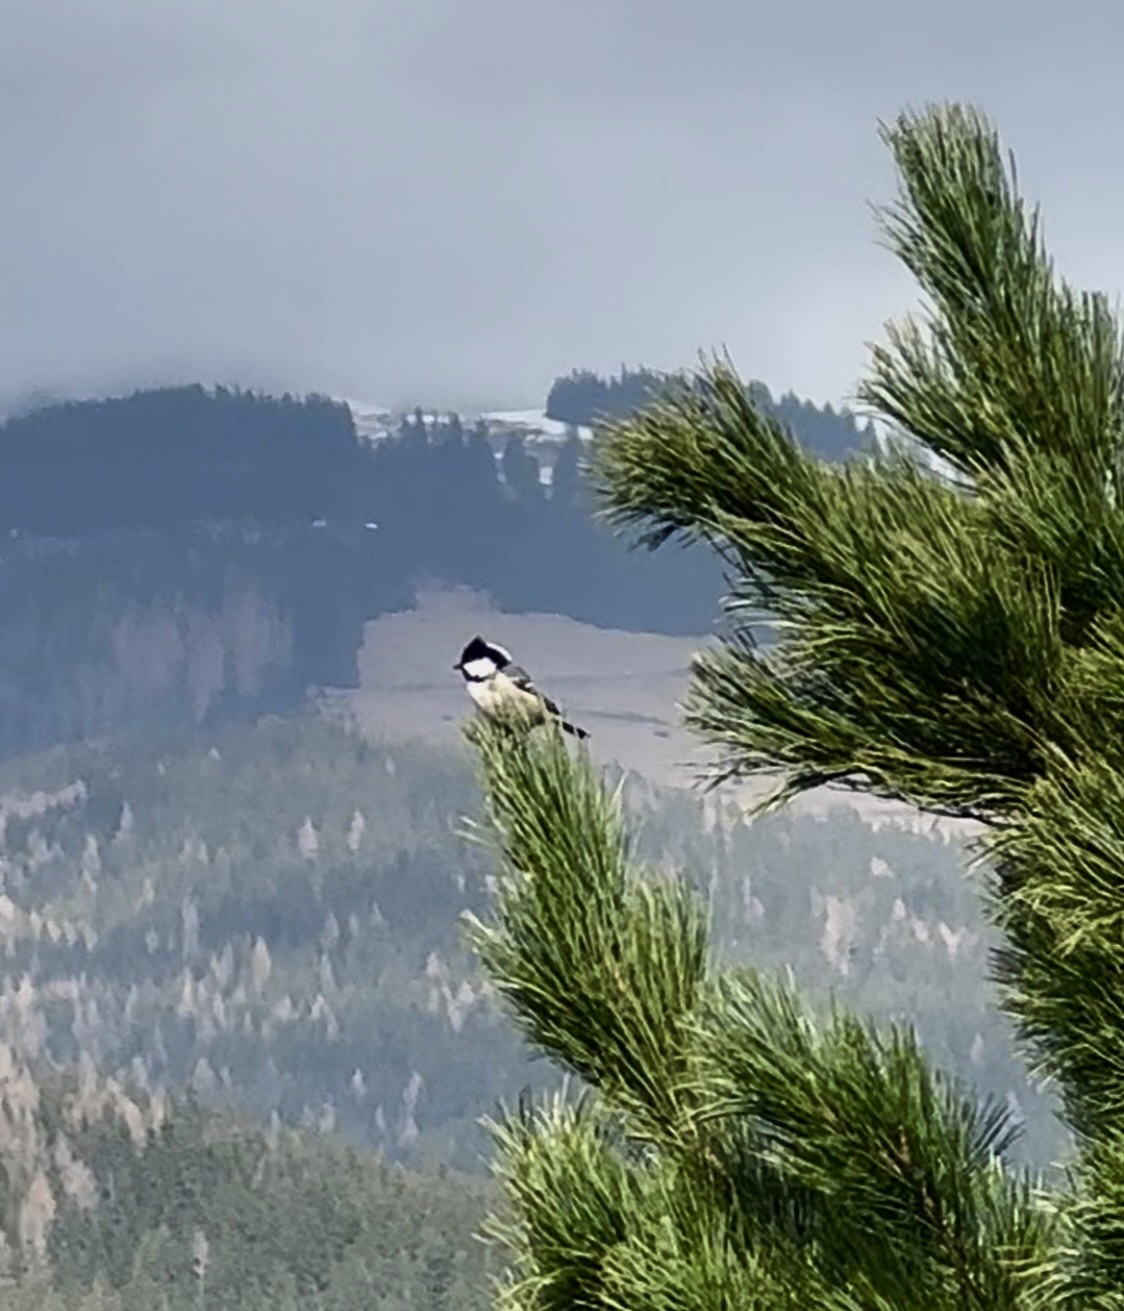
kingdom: Animalia
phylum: Chordata
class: Aves
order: Passeriformes
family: Paridae
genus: Periparus
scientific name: Periparus ater
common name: Coal tit
